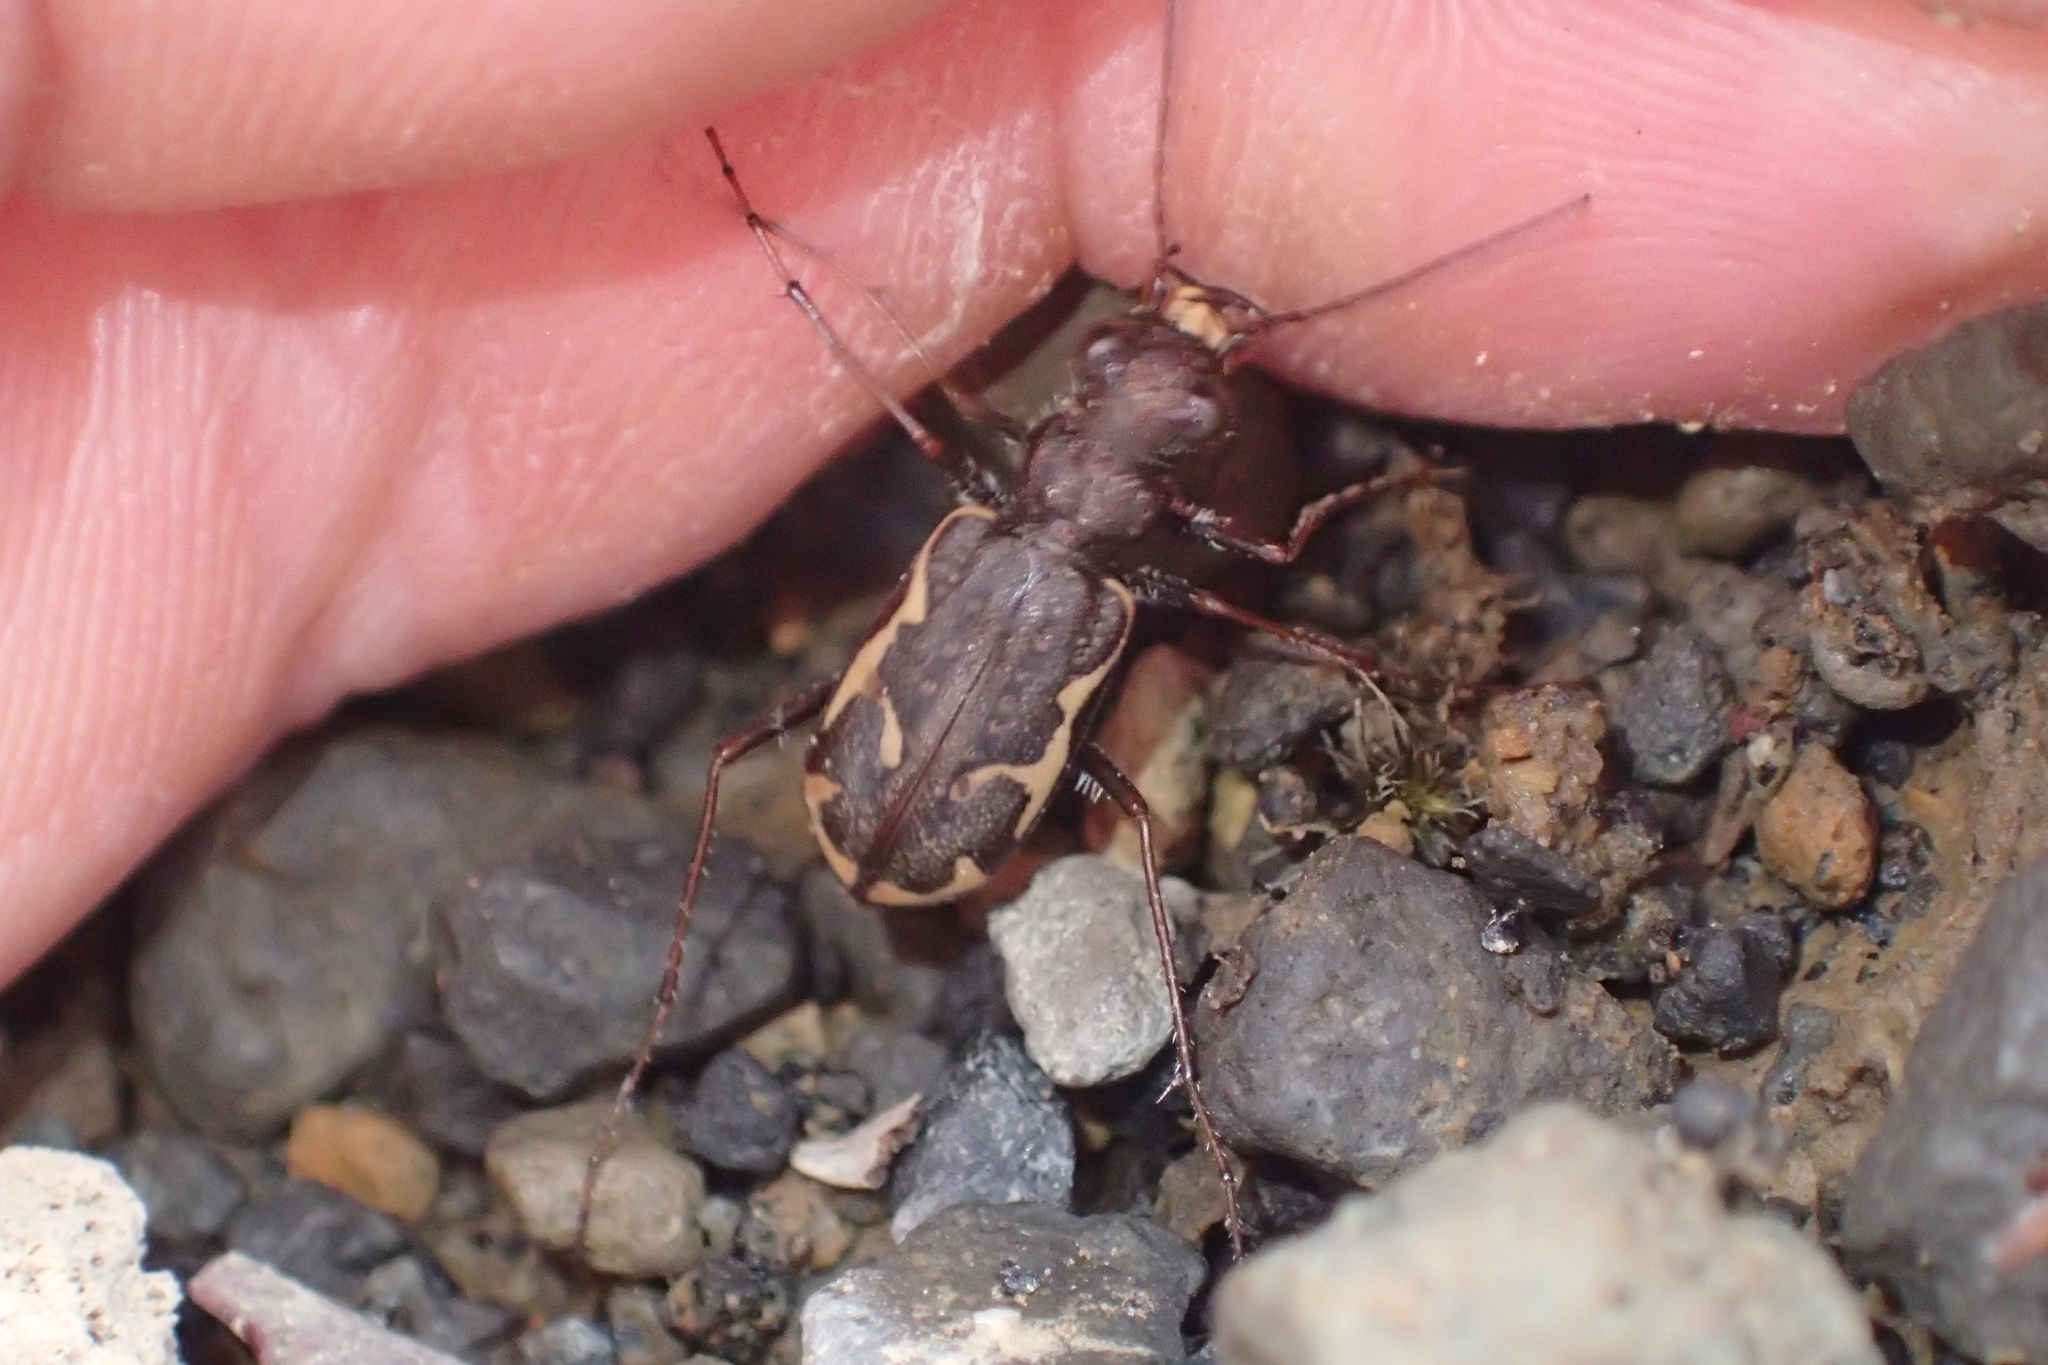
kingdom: Animalia
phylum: Arthropoda
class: Insecta
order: Coleoptera
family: Carabidae
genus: Neocicindela
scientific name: Neocicindela tuberculata
